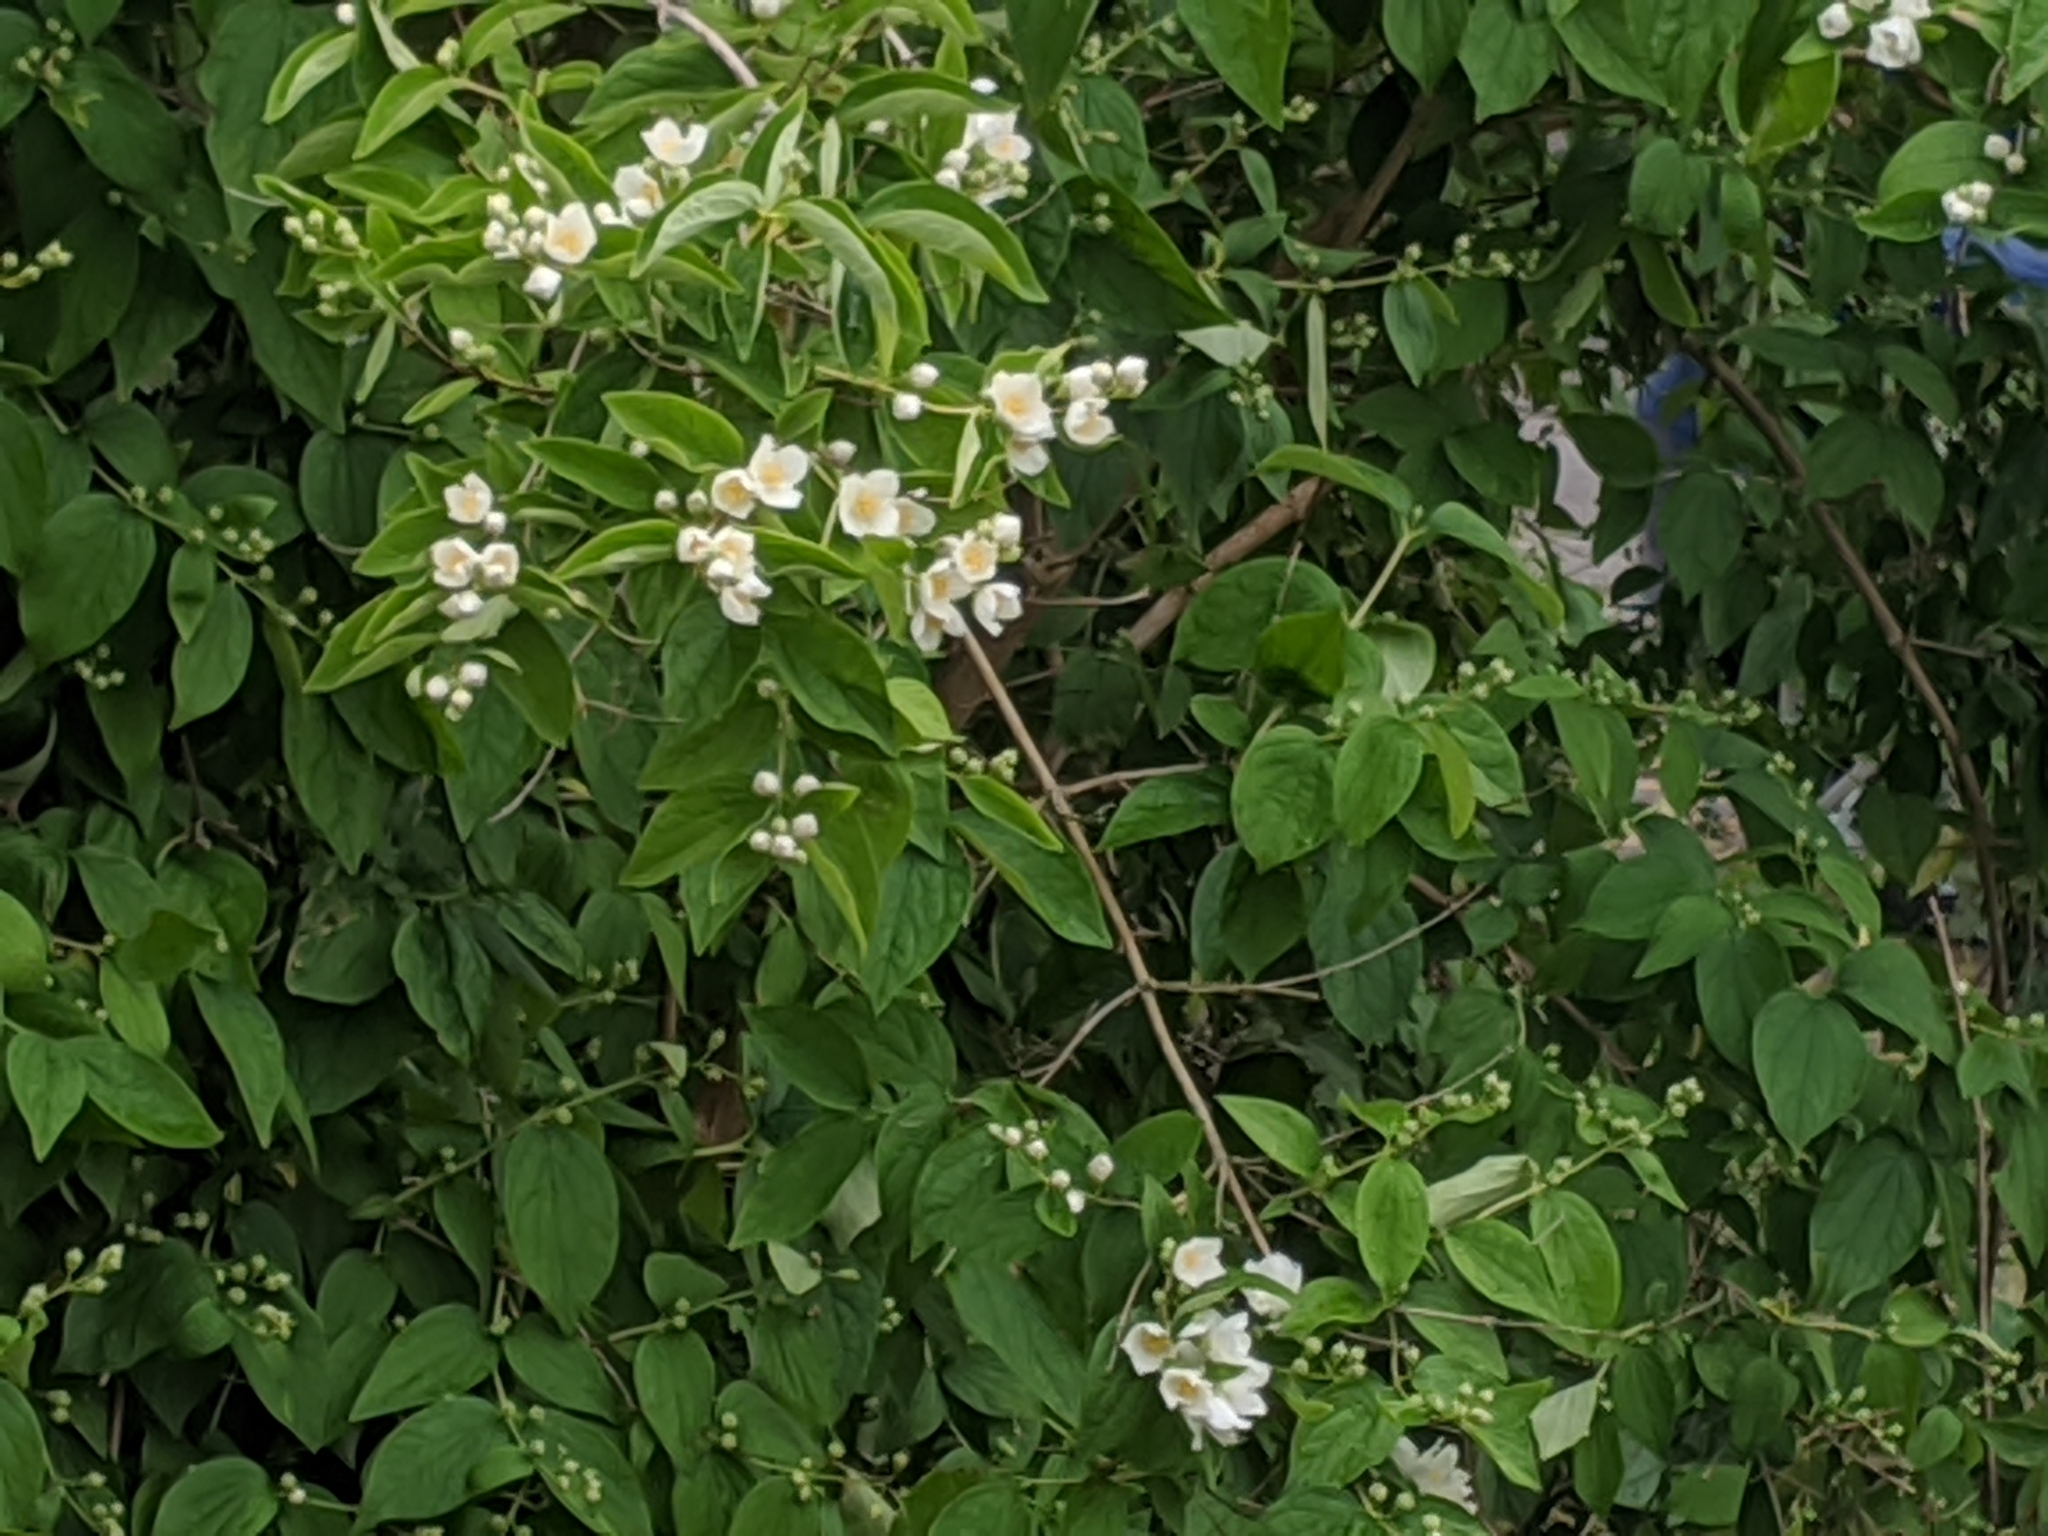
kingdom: Plantae
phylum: Tracheophyta
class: Magnoliopsida
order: Cornales
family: Hydrangeaceae
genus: Philadelphus
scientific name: Philadelphus coronarius
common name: Mock orange
